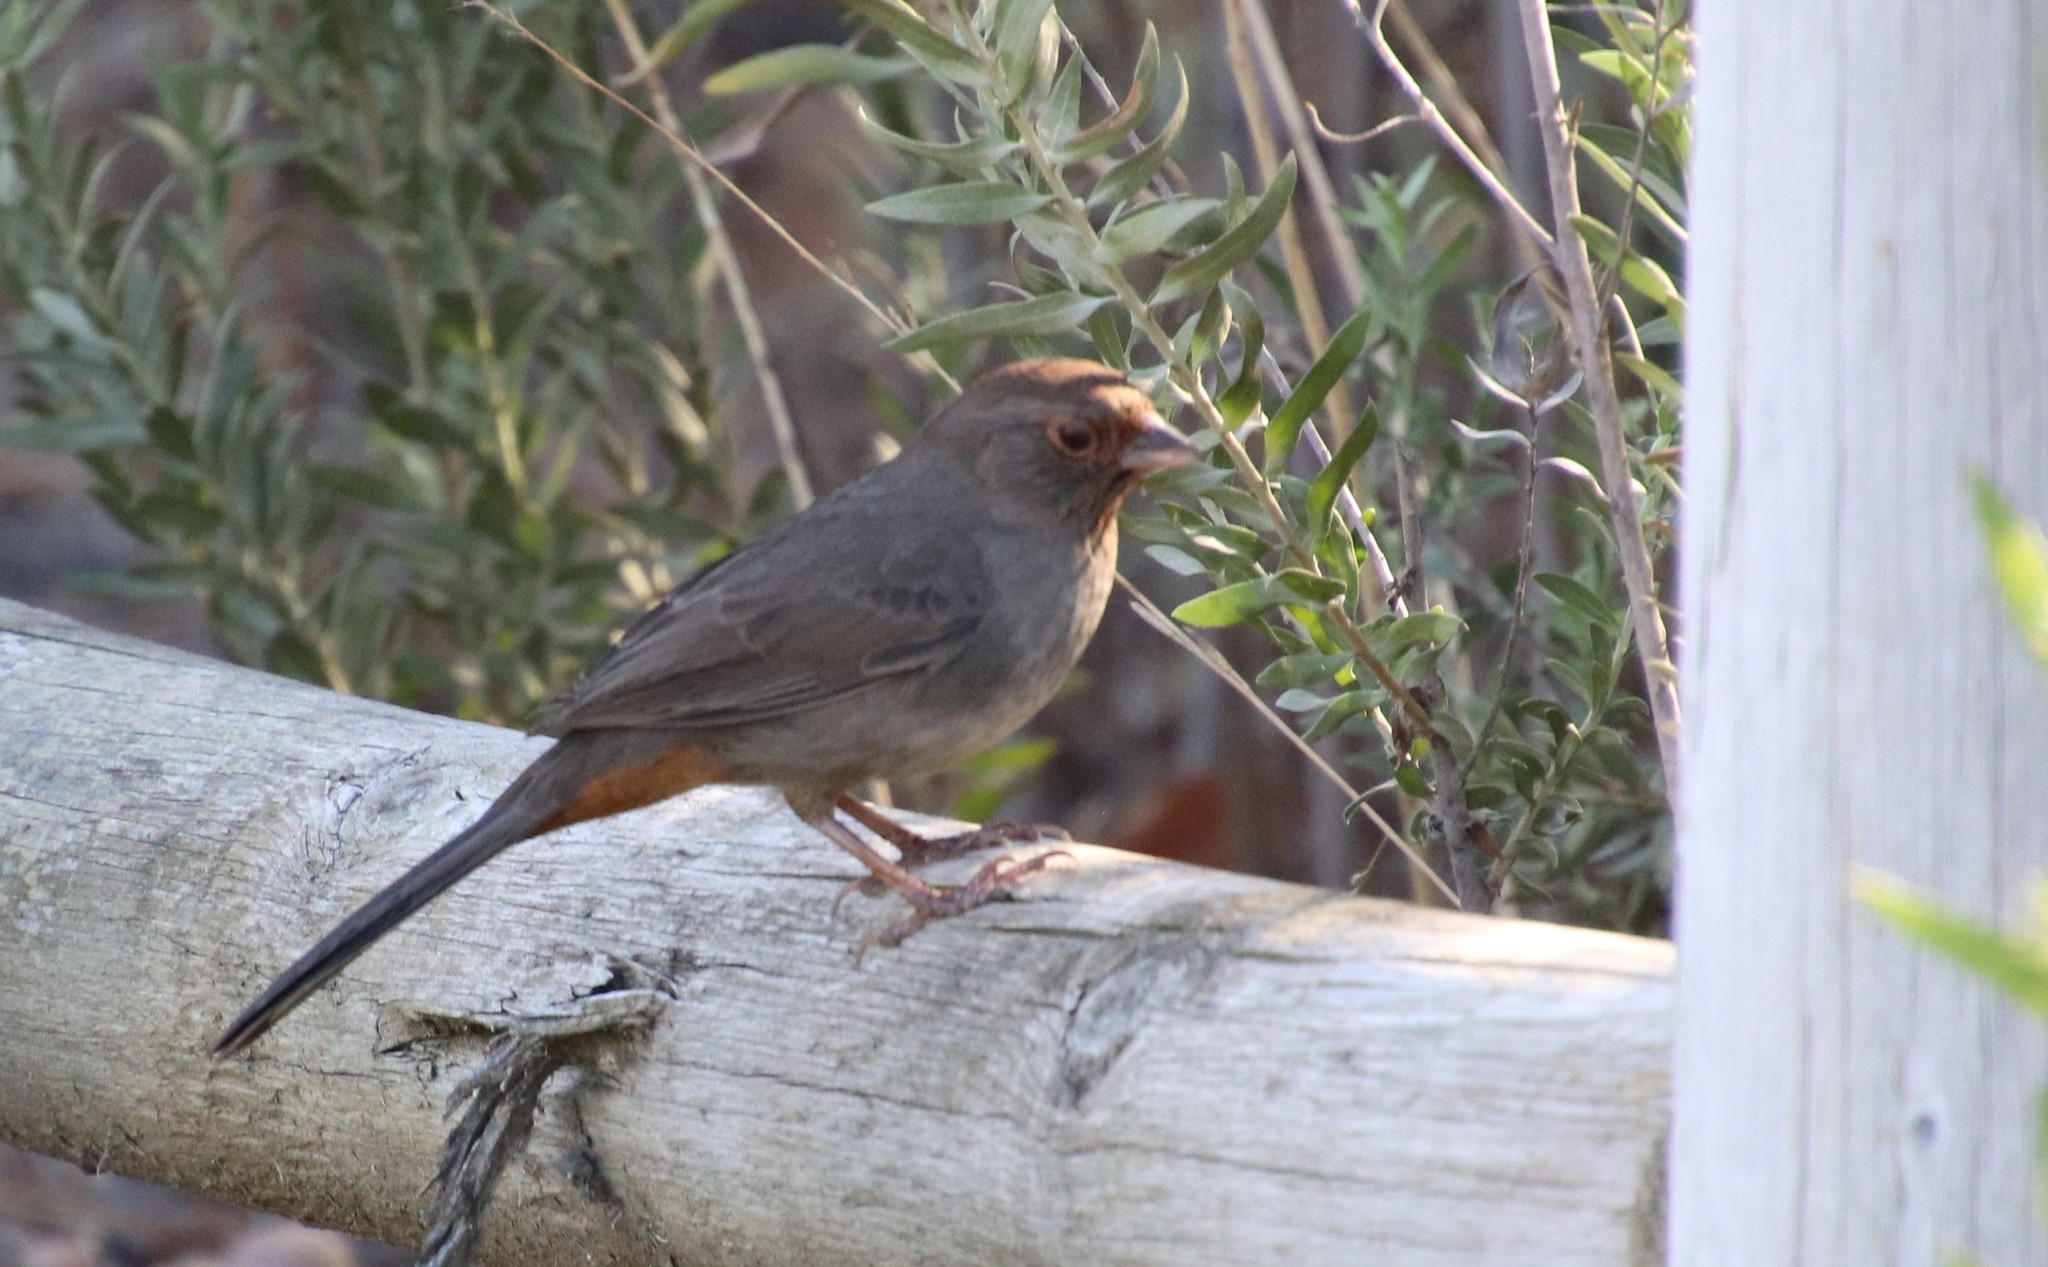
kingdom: Animalia
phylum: Chordata
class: Aves
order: Passeriformes
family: Passerellidae
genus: Melozone
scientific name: Melozone crissalis
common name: California towhee
